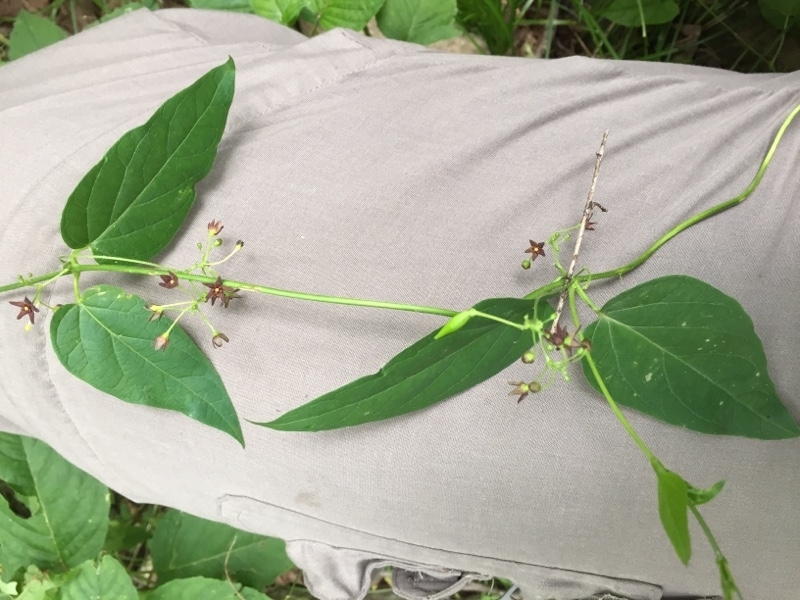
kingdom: Plantae
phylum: Tracheophyta
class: Magnoliopsida
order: Gentianales
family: Apocynaceae
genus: Vincetoxicum
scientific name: Vincetoxicum scandens
